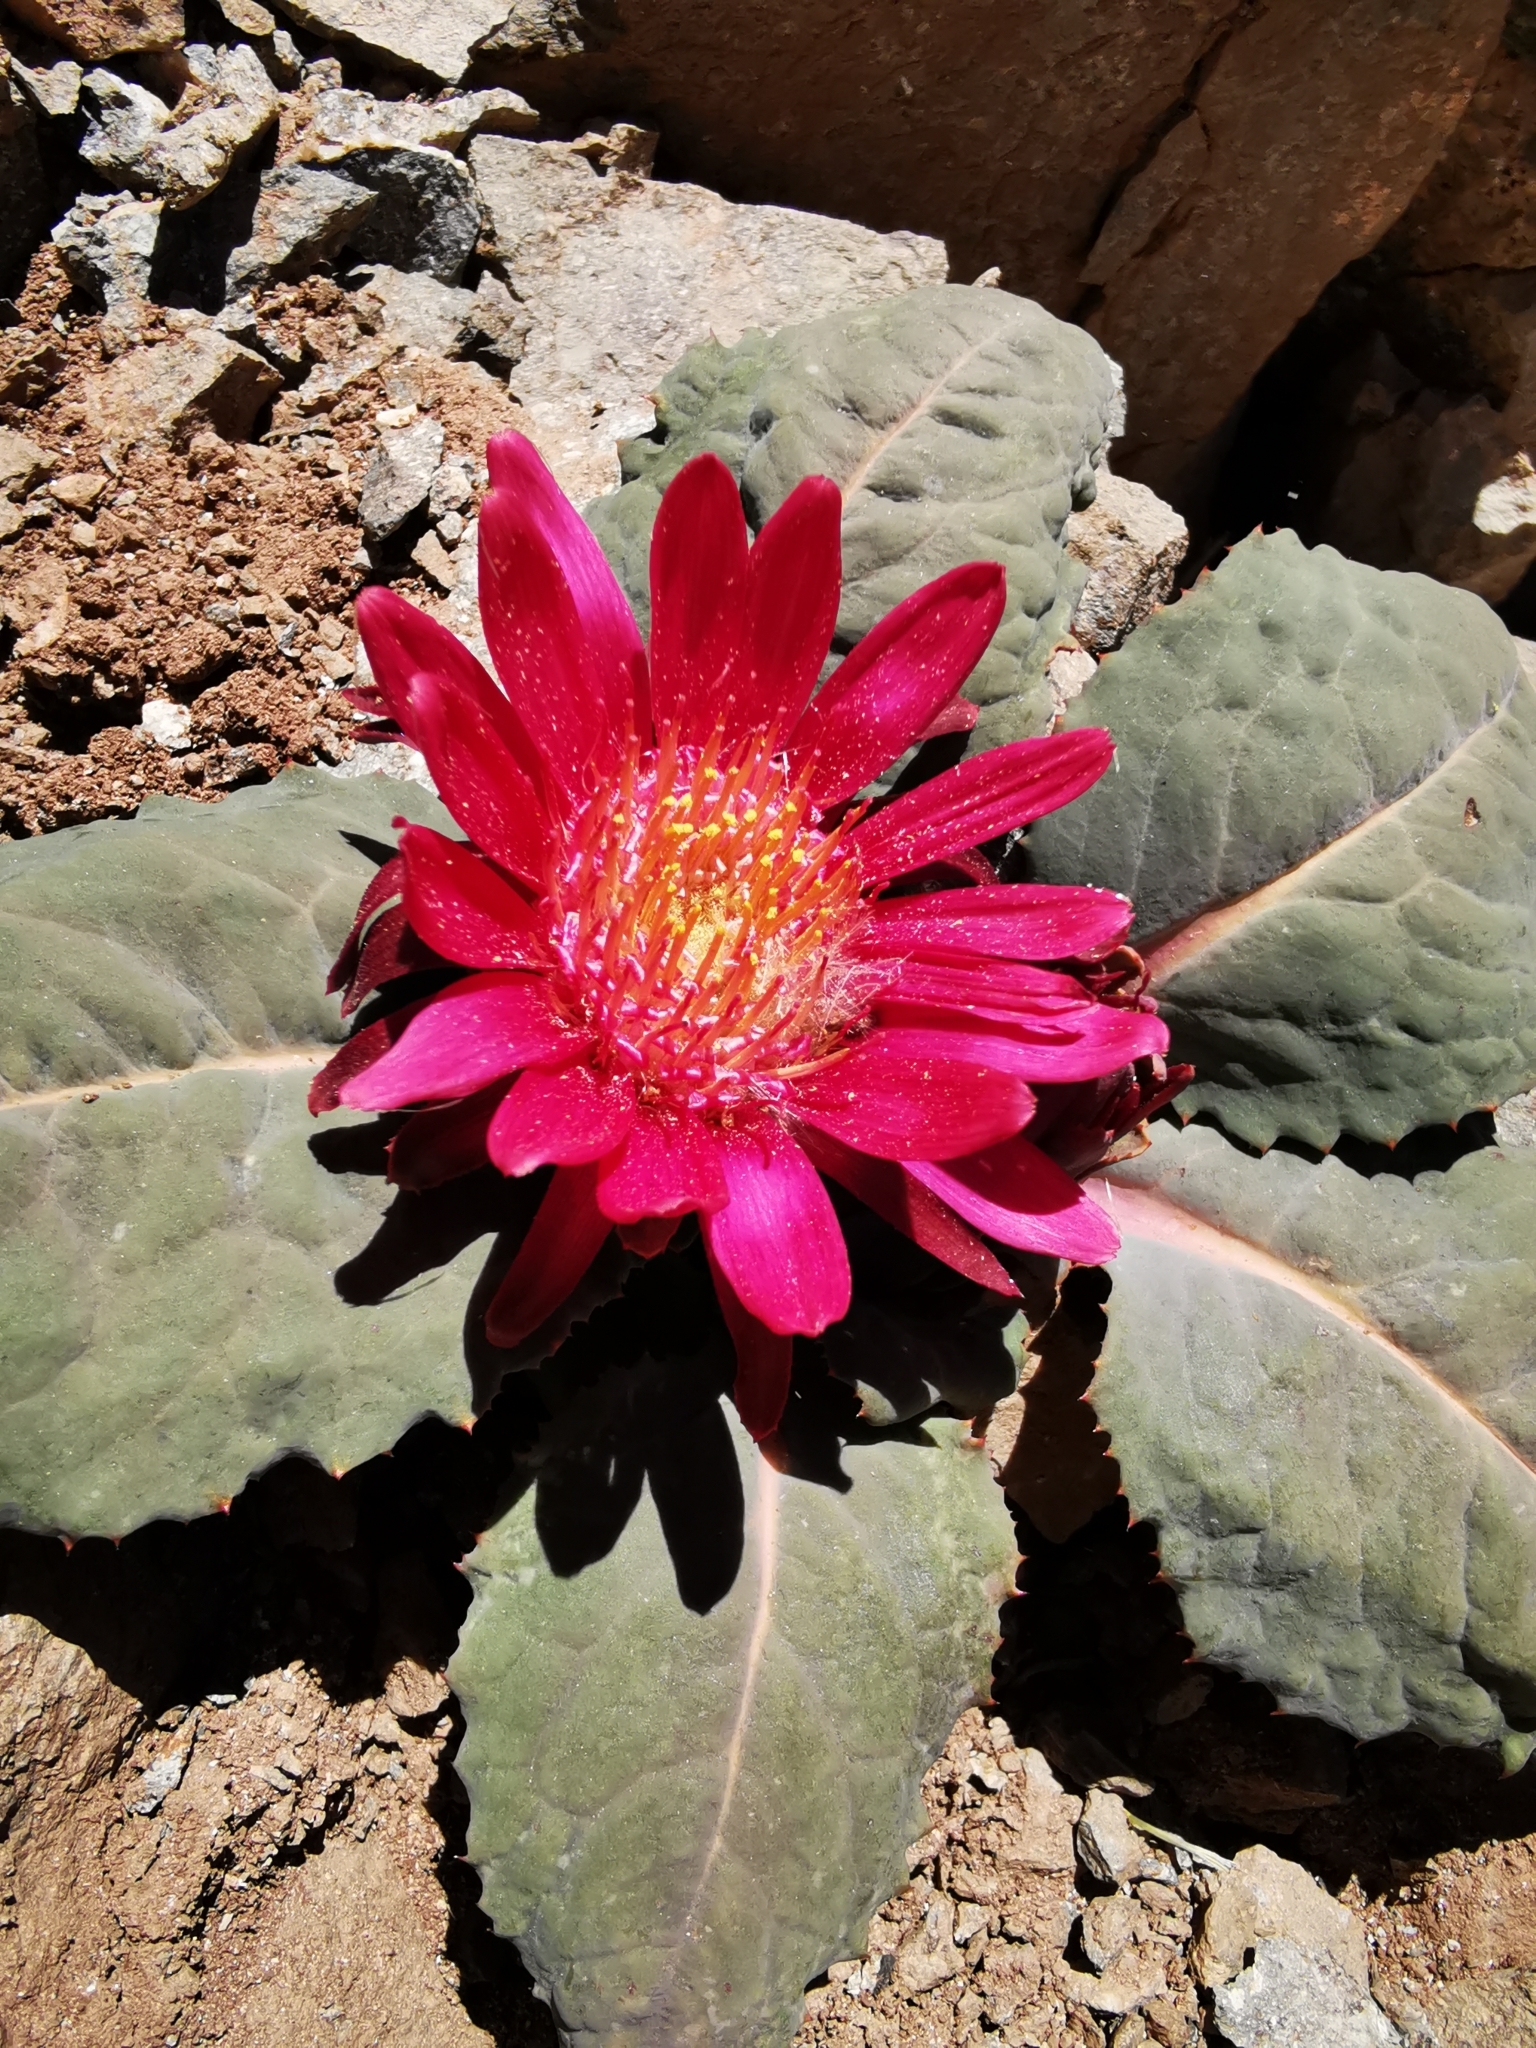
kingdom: Plantae
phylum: Tracheophyta
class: Magnoliopsida
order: Asterales
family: Asteraceae
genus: Pachylaena
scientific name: Pachylaena atriplicifolia
